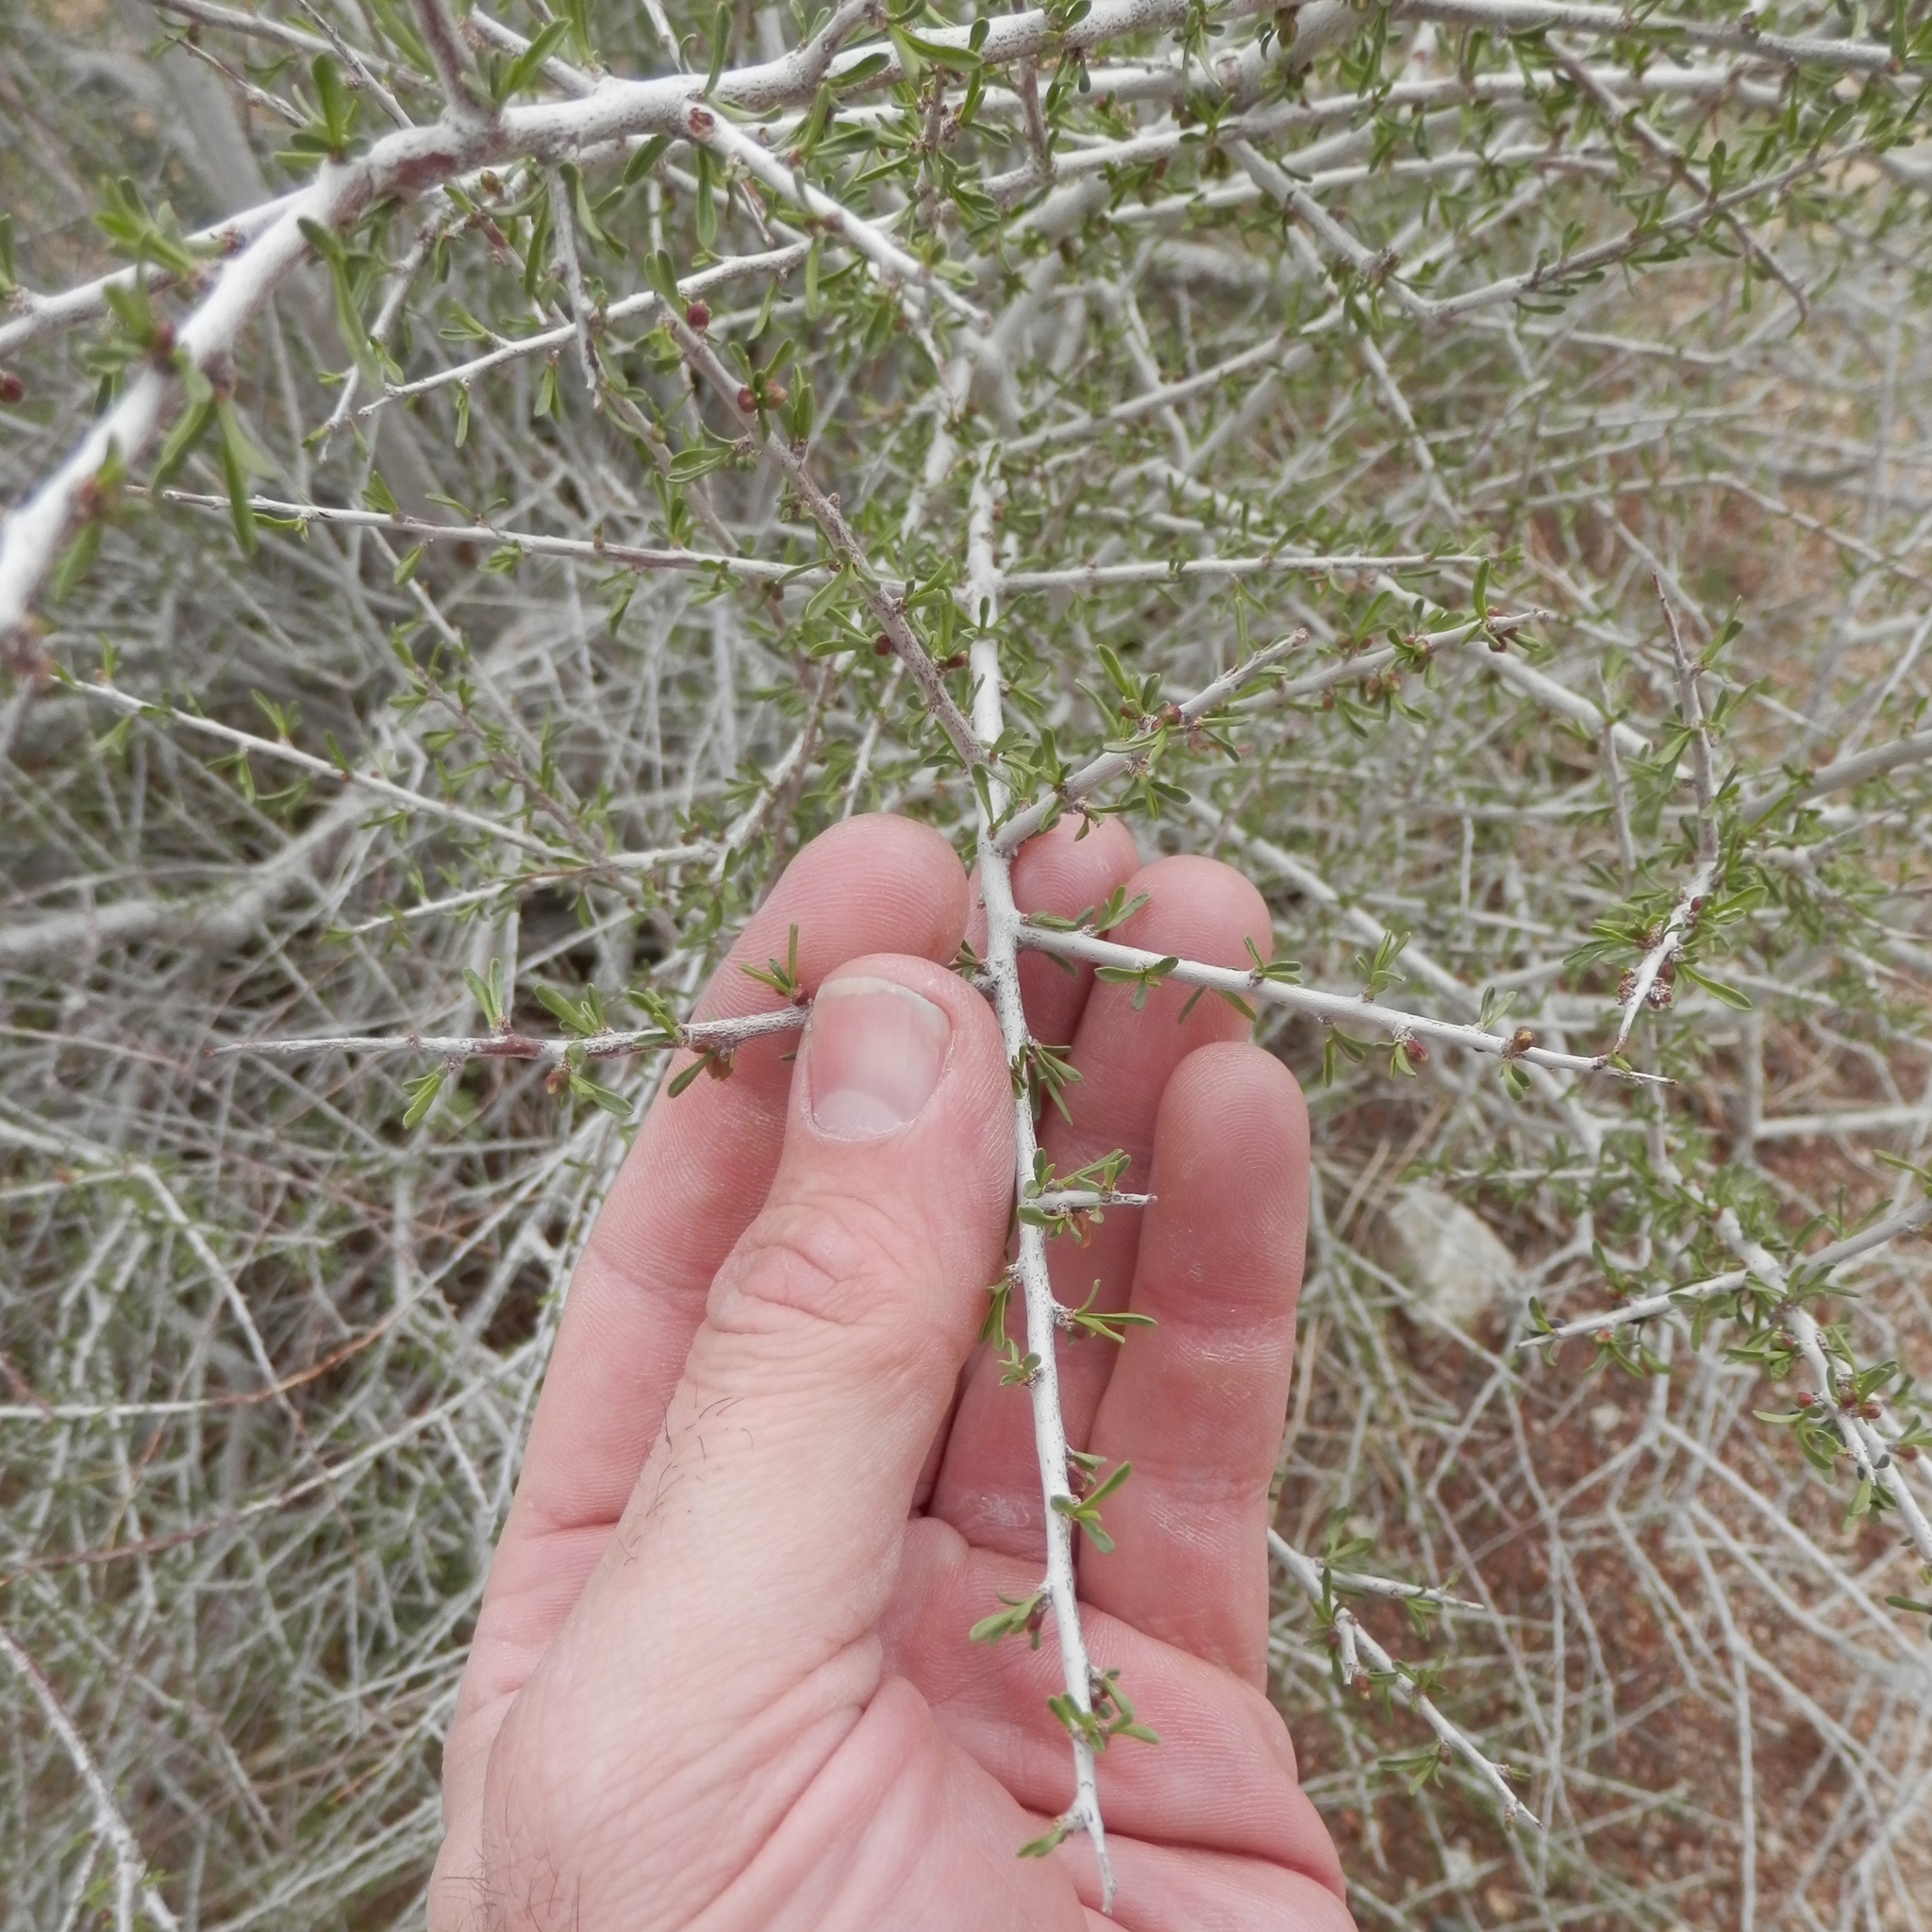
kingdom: Plantae
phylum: Tracheophyta
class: Magnoliopsida
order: Rosales
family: Rosaceae
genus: Prunus
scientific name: Prunus fasciculata
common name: Desert almond
